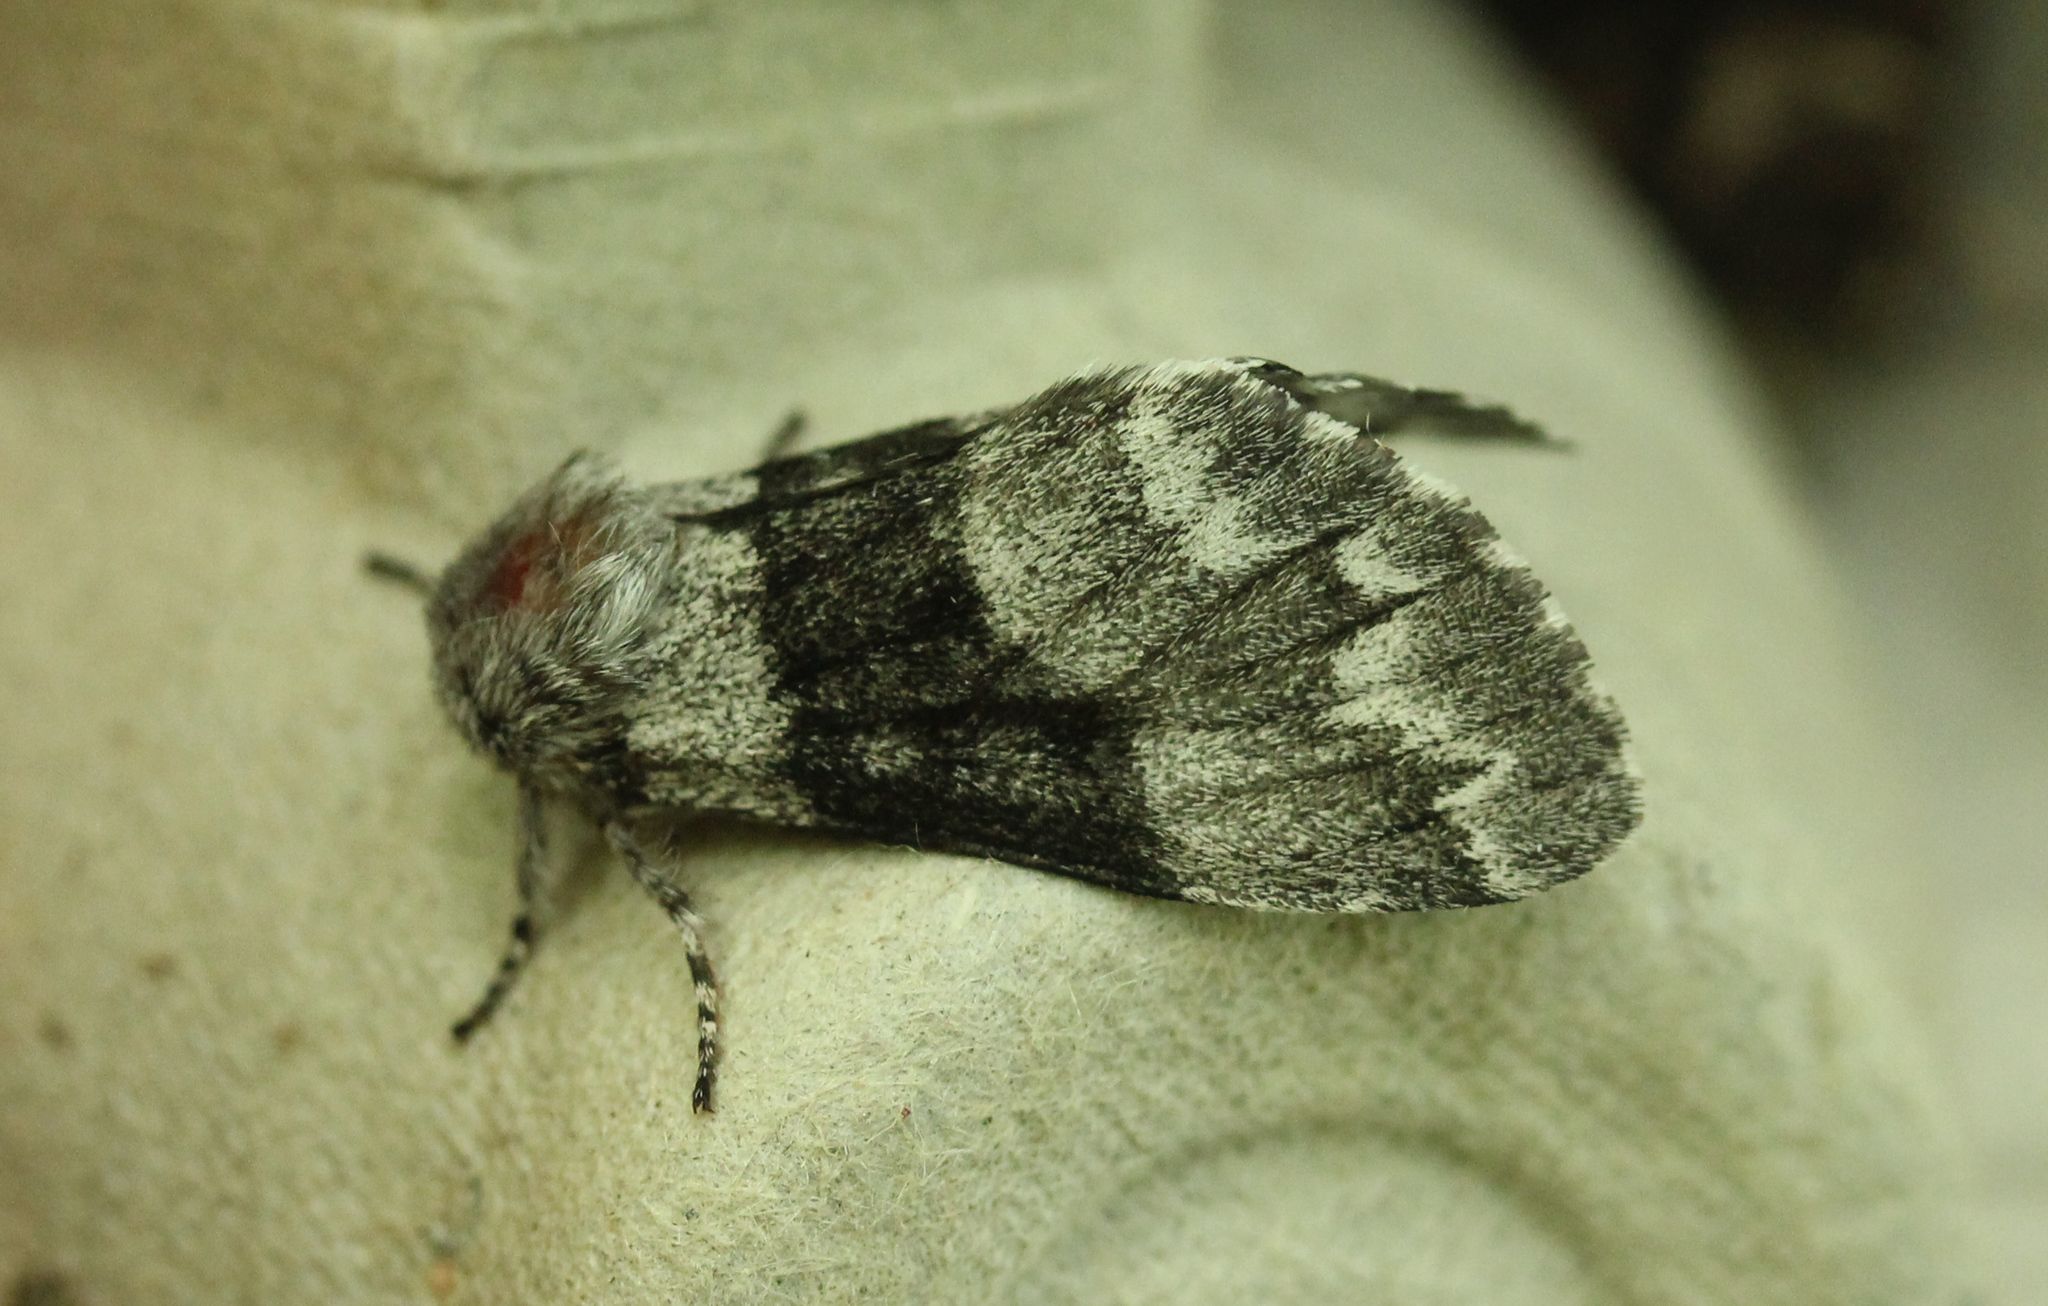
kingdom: Animalia
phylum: Arthropoda
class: Insecta
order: Lepidoptera
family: Noctuidae
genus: Panthea
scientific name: Panthea furcilla
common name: Eastern panthea moth
